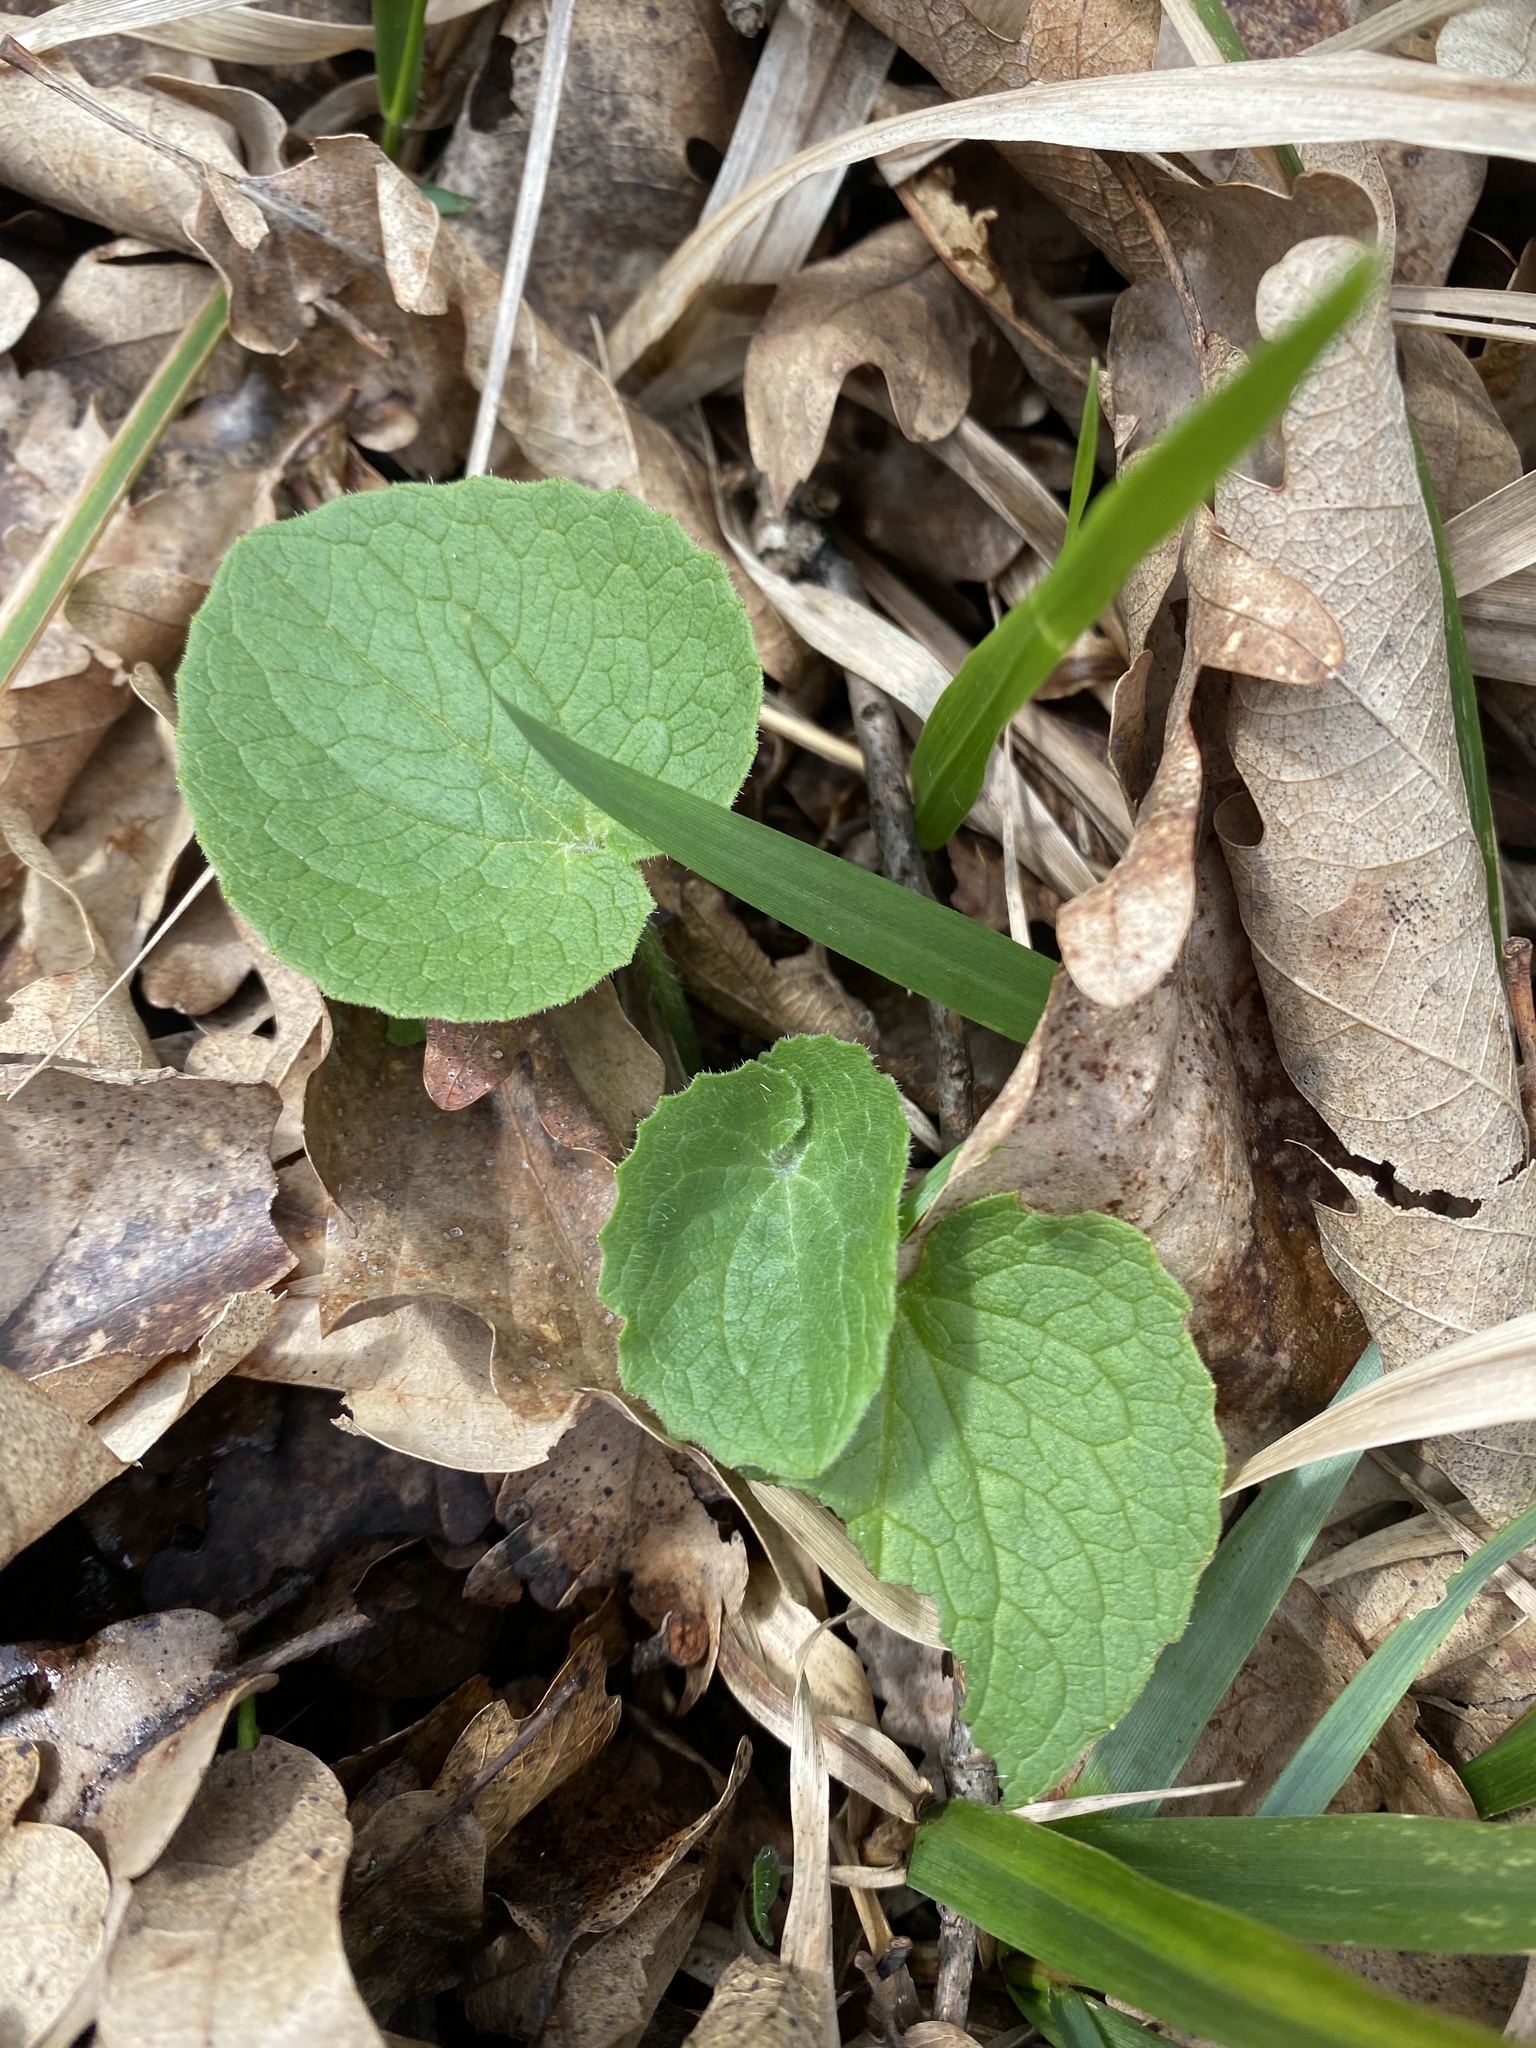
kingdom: Plantae
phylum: Tracheophyta
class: Magnoliopsida
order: Asterales
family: Asteraceae
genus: Doronicum
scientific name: Doronicum
